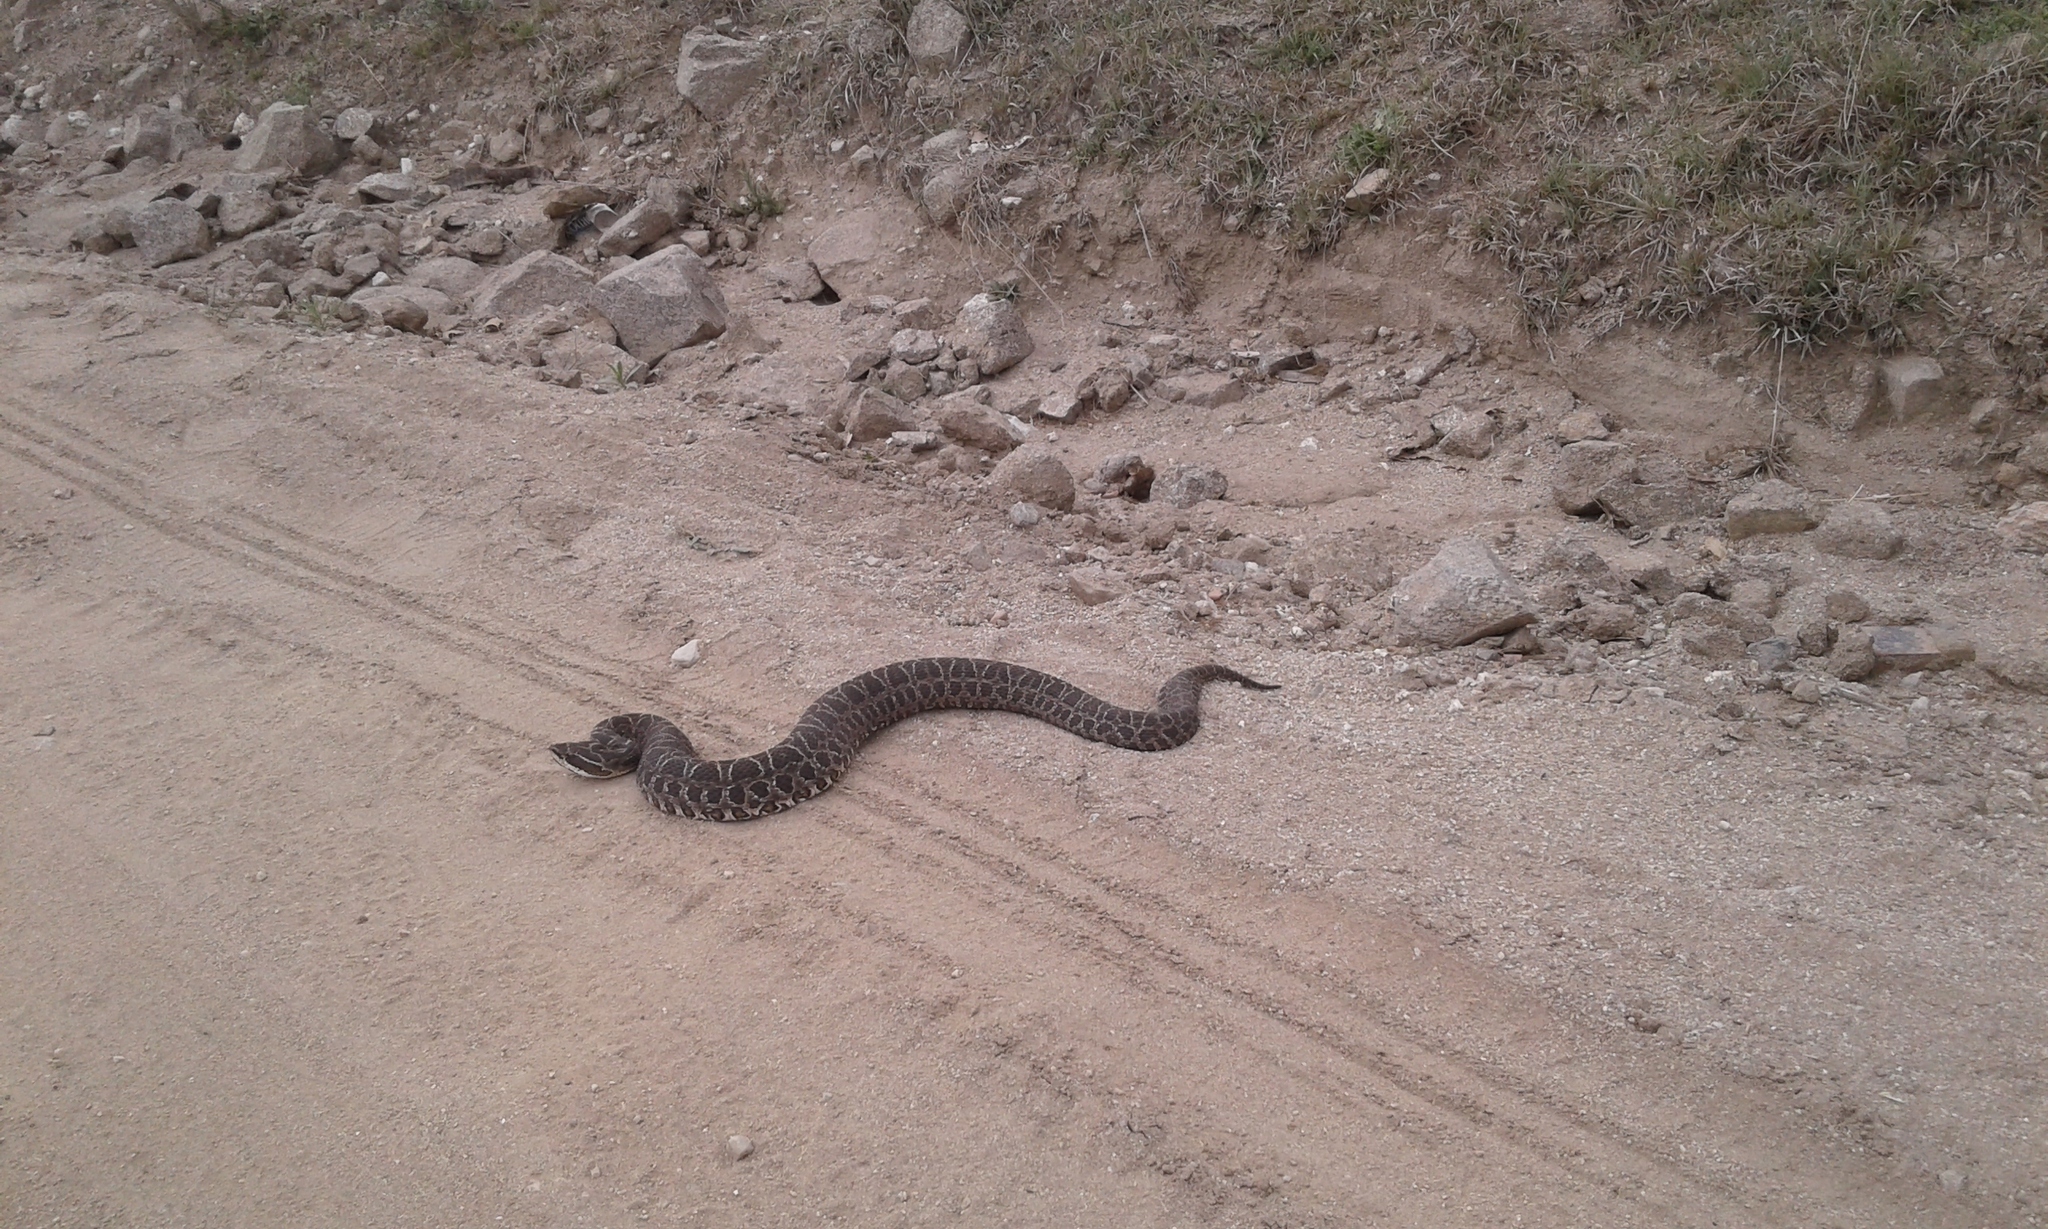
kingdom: Animalia
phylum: Chordata
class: Squamata
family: Viperidae
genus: Bothrops
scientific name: Bothrops alternatus
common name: Urutu
